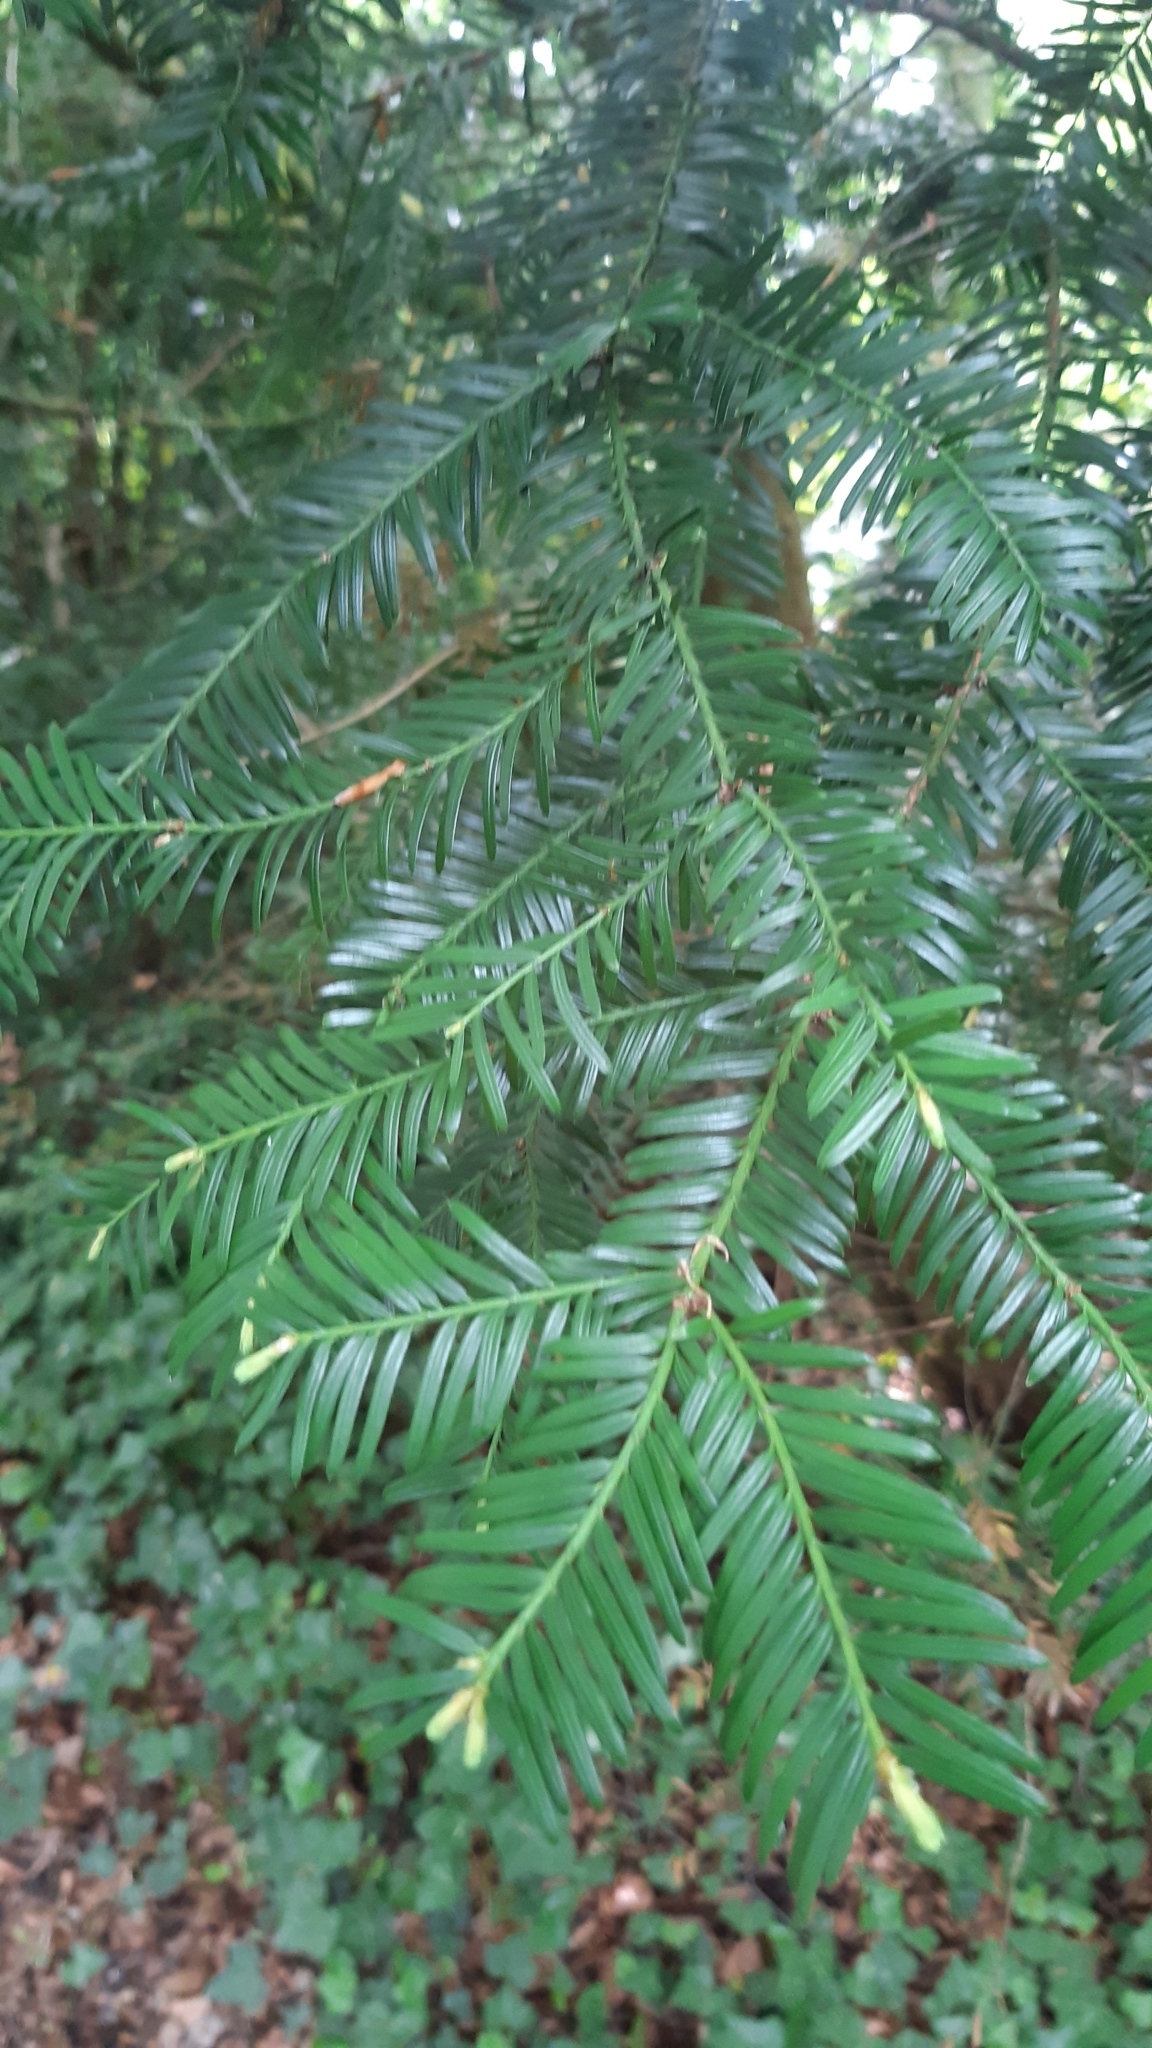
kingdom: Plantae
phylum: Tracheophyta
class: Pinopsida
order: Pinales
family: Taxaceae
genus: Taxus
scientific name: Taxus baccata
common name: Yew
